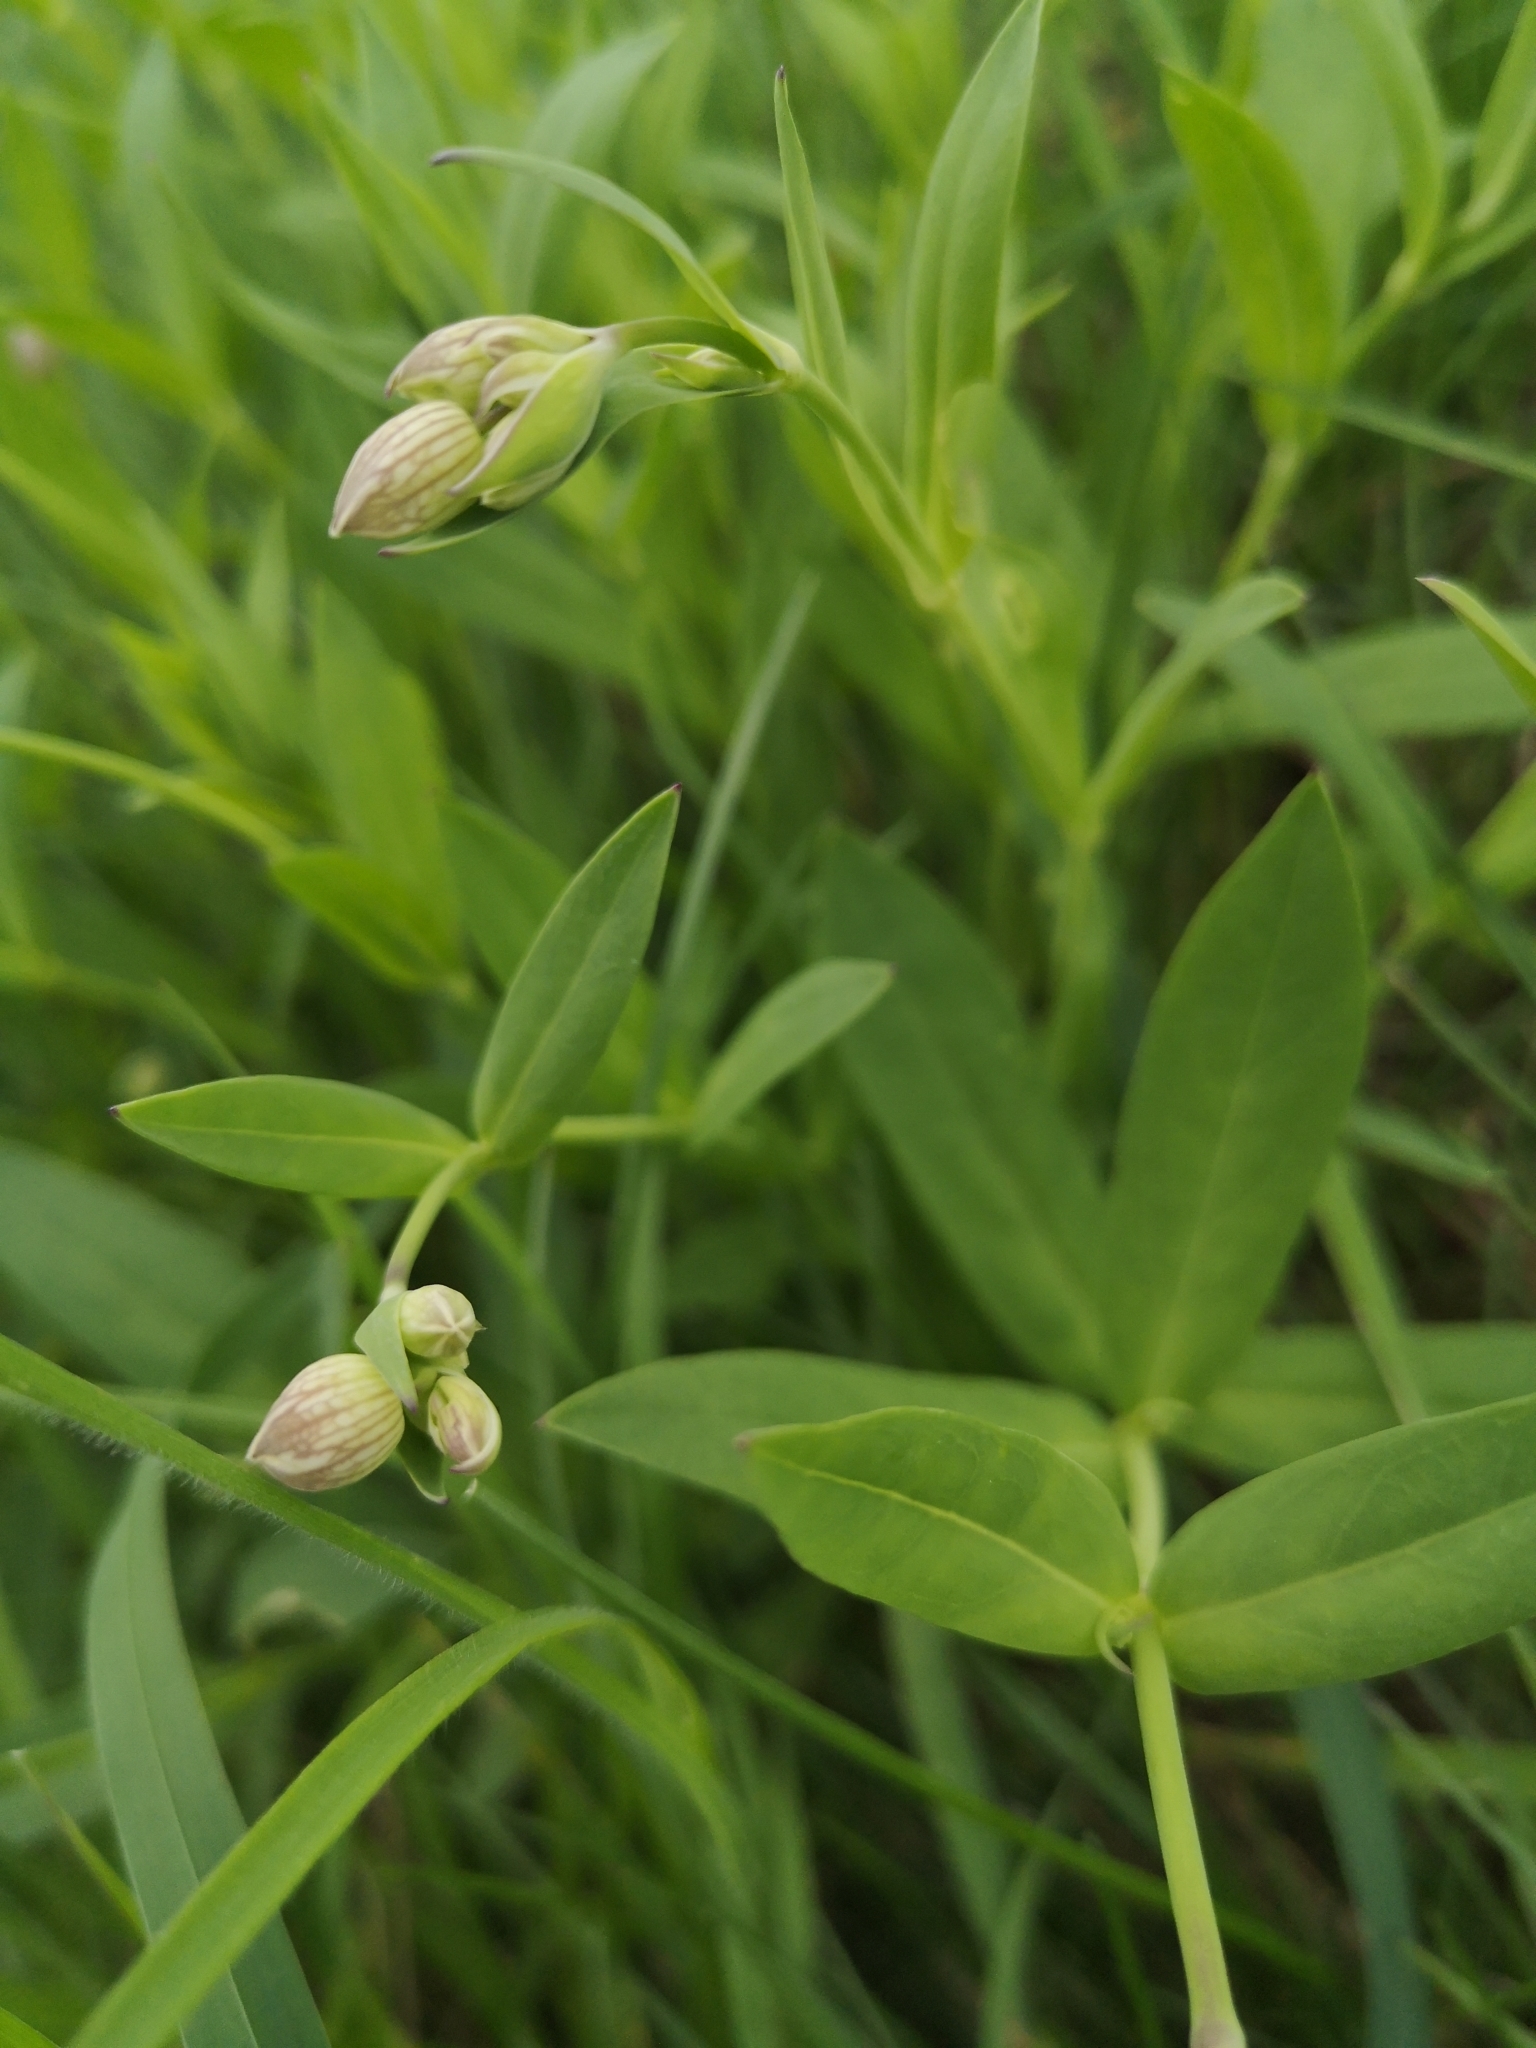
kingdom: Plantae
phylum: Tracheophyta
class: Magnoliopsida
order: Caryophyllales
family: Caryophyllaceae
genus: Silene
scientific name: Silene vulgaris
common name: Bladder campion
